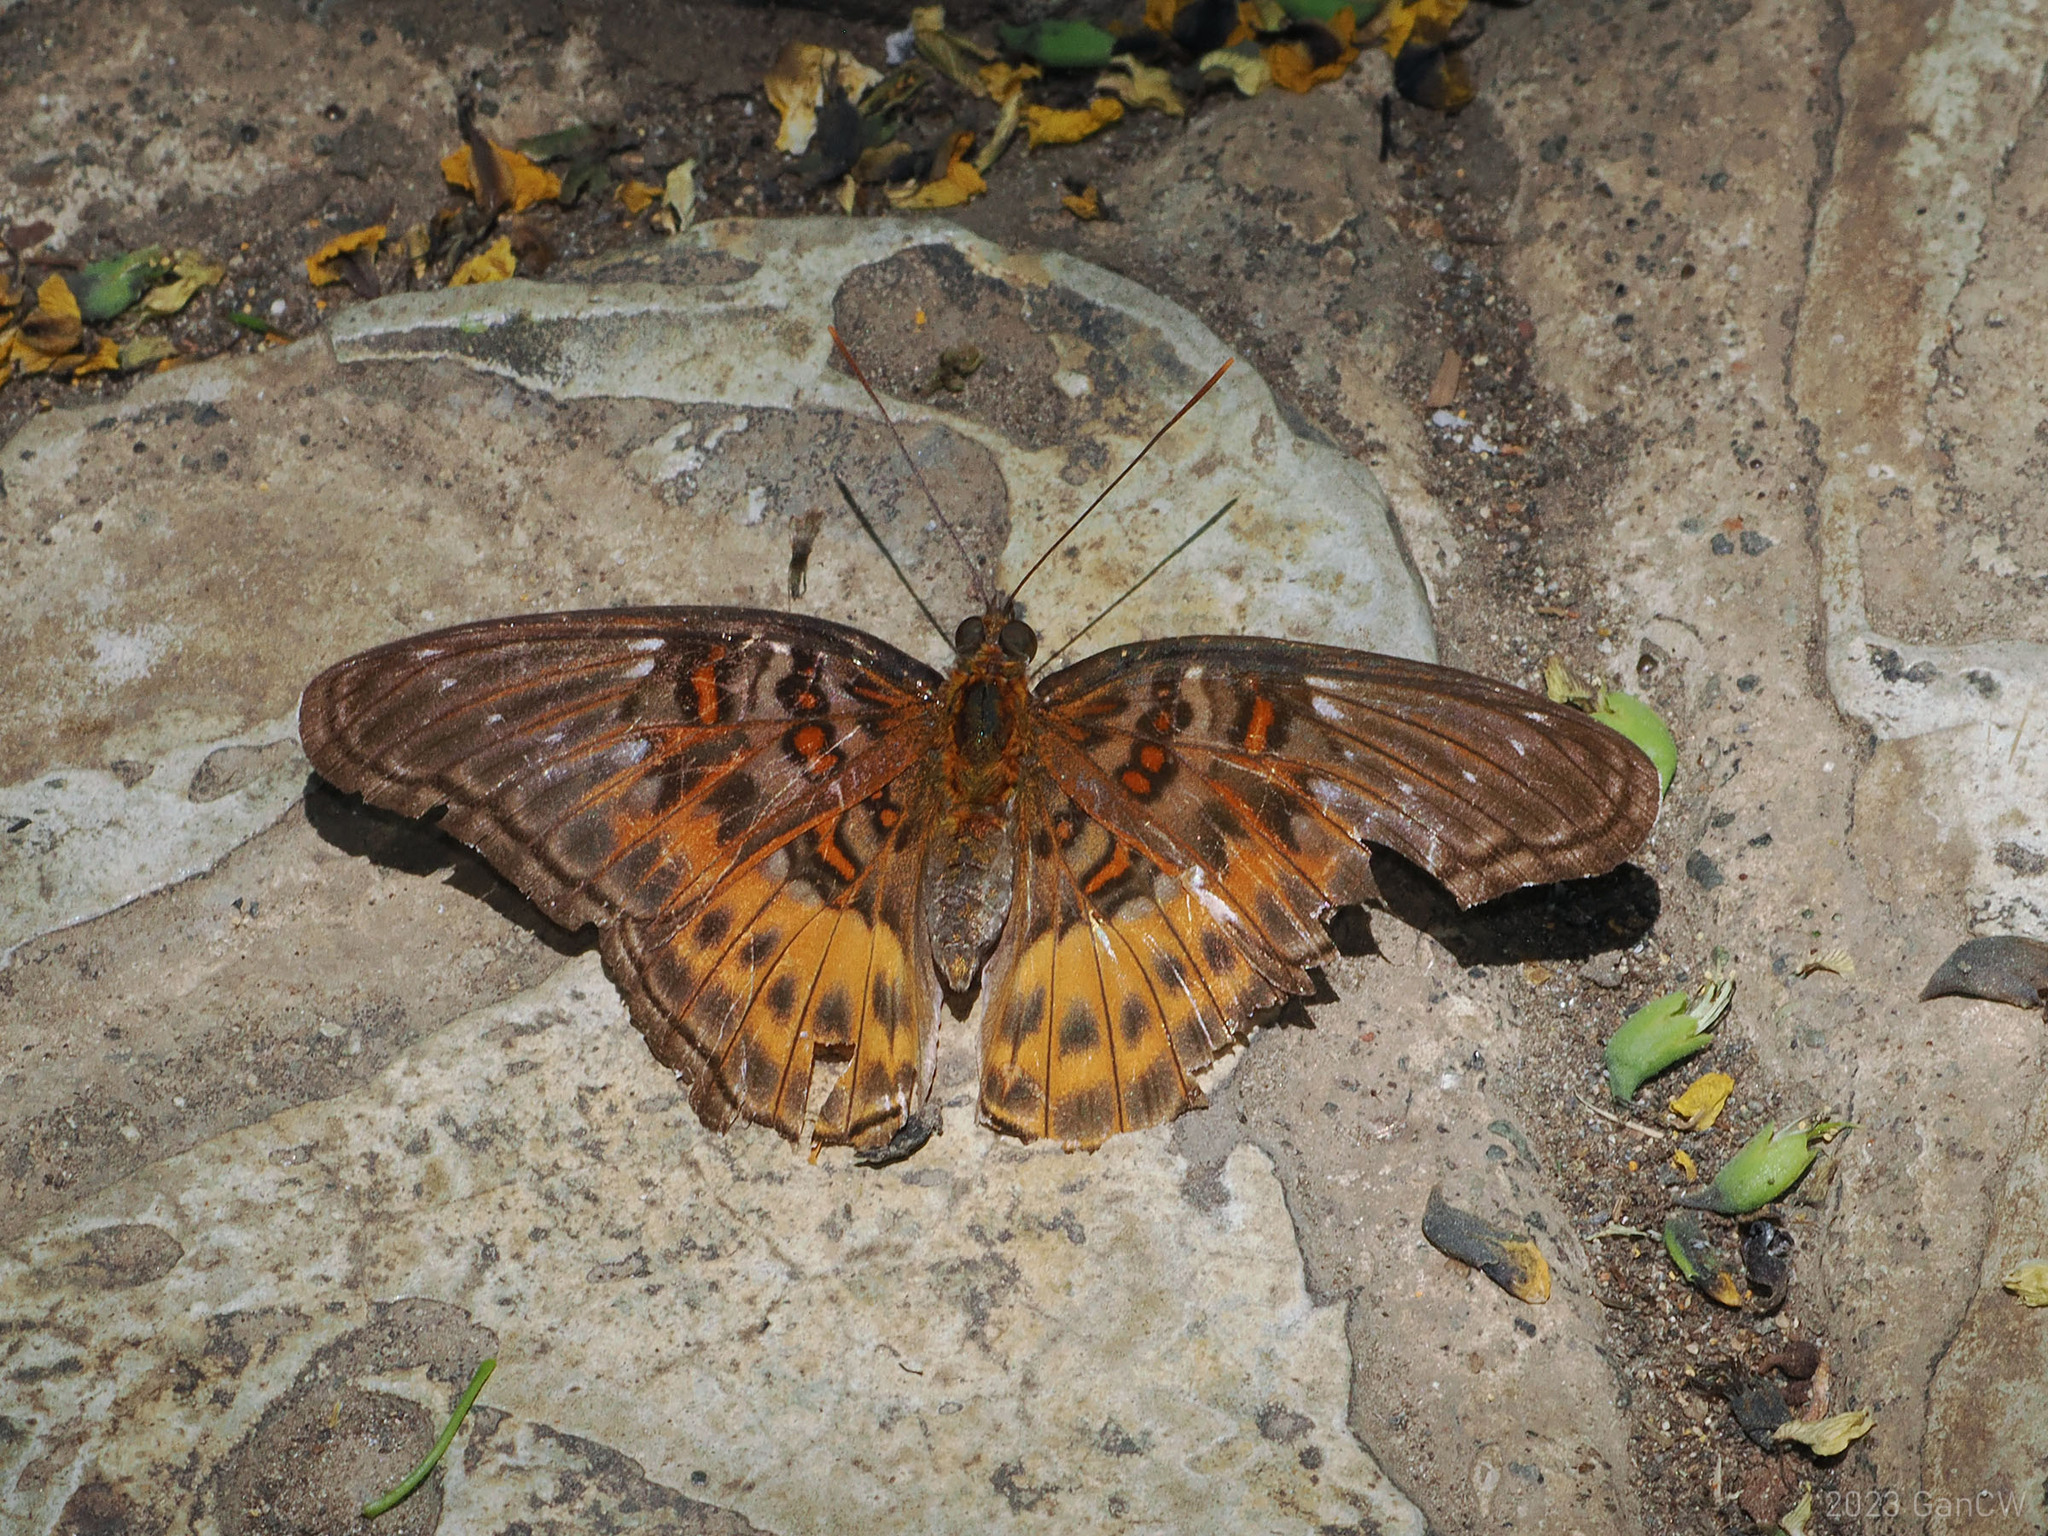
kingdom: Animalia
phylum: Arthropoda
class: Insecta
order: Lepidoptera
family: Nymphalidae
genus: Limenitis
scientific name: Limenitis
